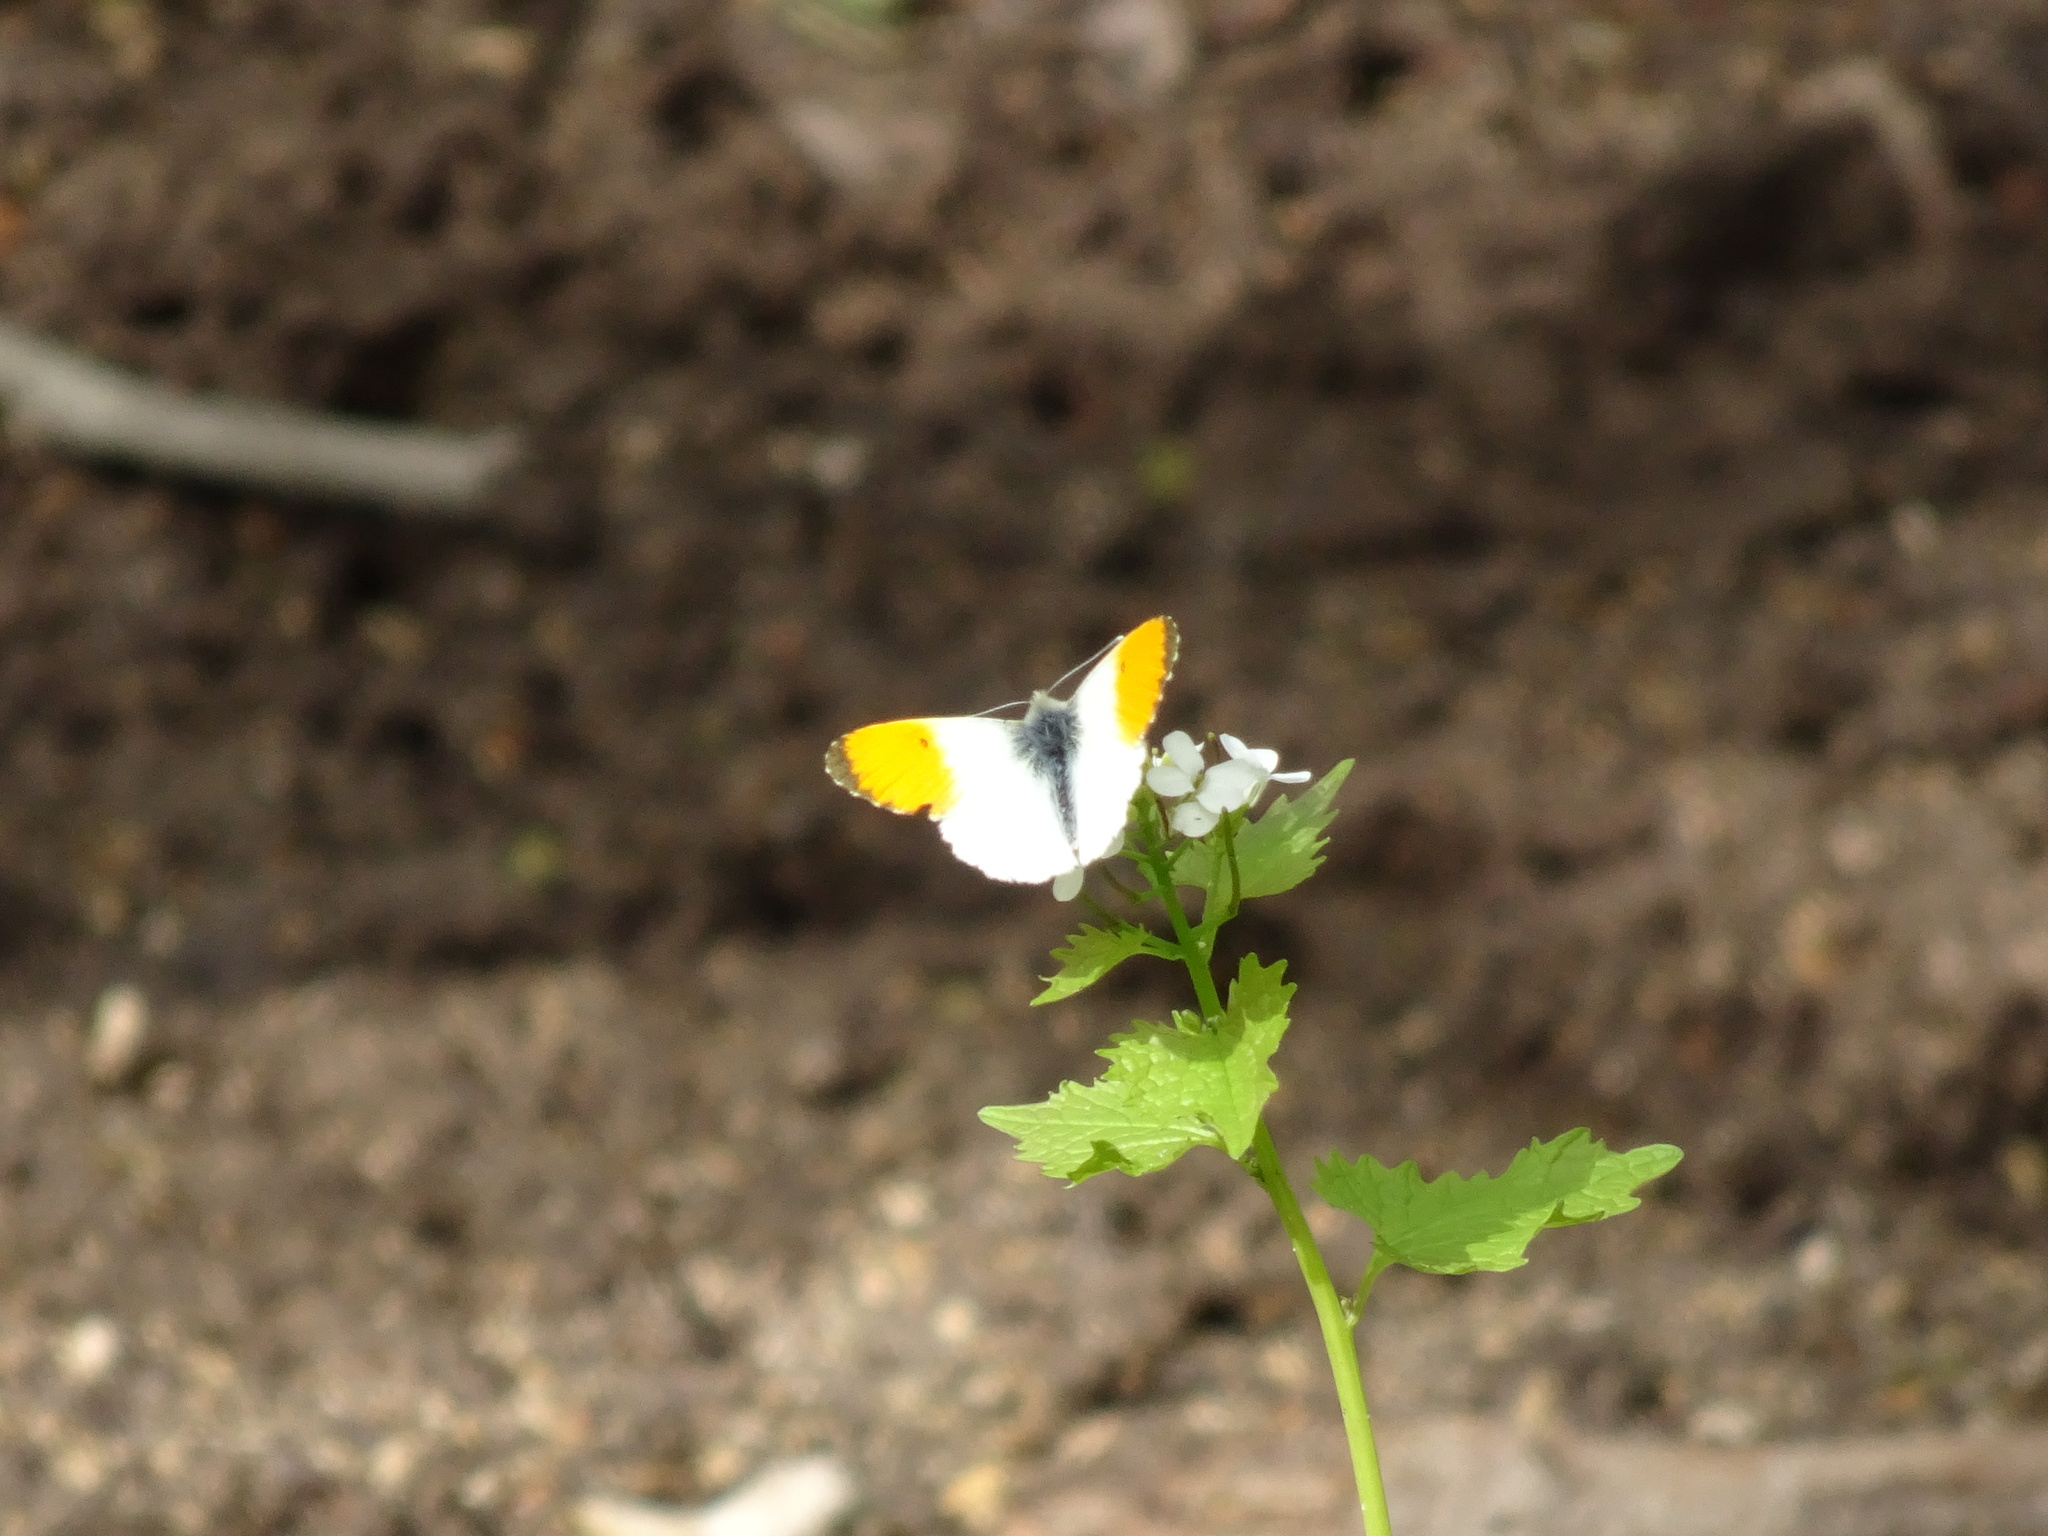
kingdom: Animalia
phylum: Arthropoda
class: Insecta
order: Lepidoptera
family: Pieridae
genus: Anthocharis
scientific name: Anthocharis cardamines
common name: Orange-tip
